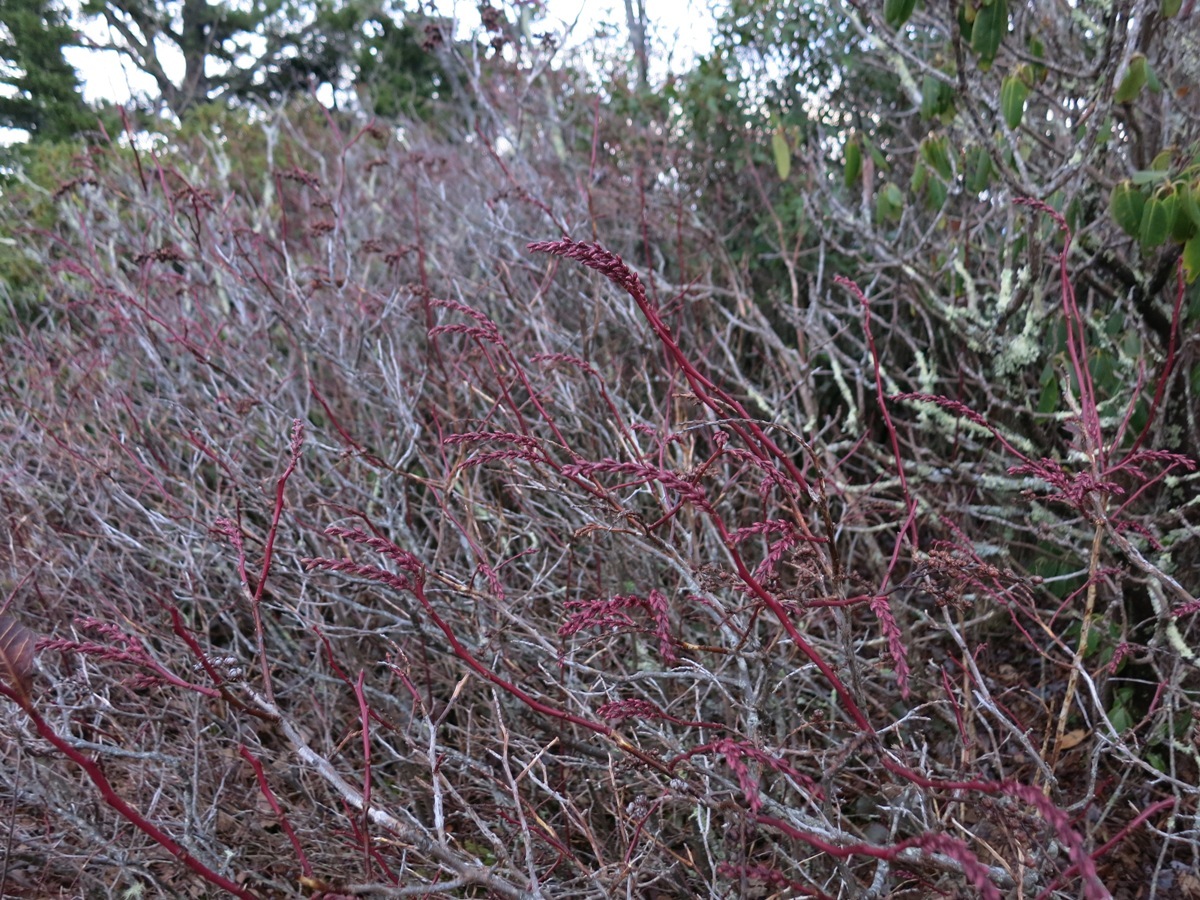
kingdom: Plantae
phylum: Tracheophyta
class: Magnoliopsida
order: Ericales
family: Ericaceae
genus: Eubotrys
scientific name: Eubotrys recurva
